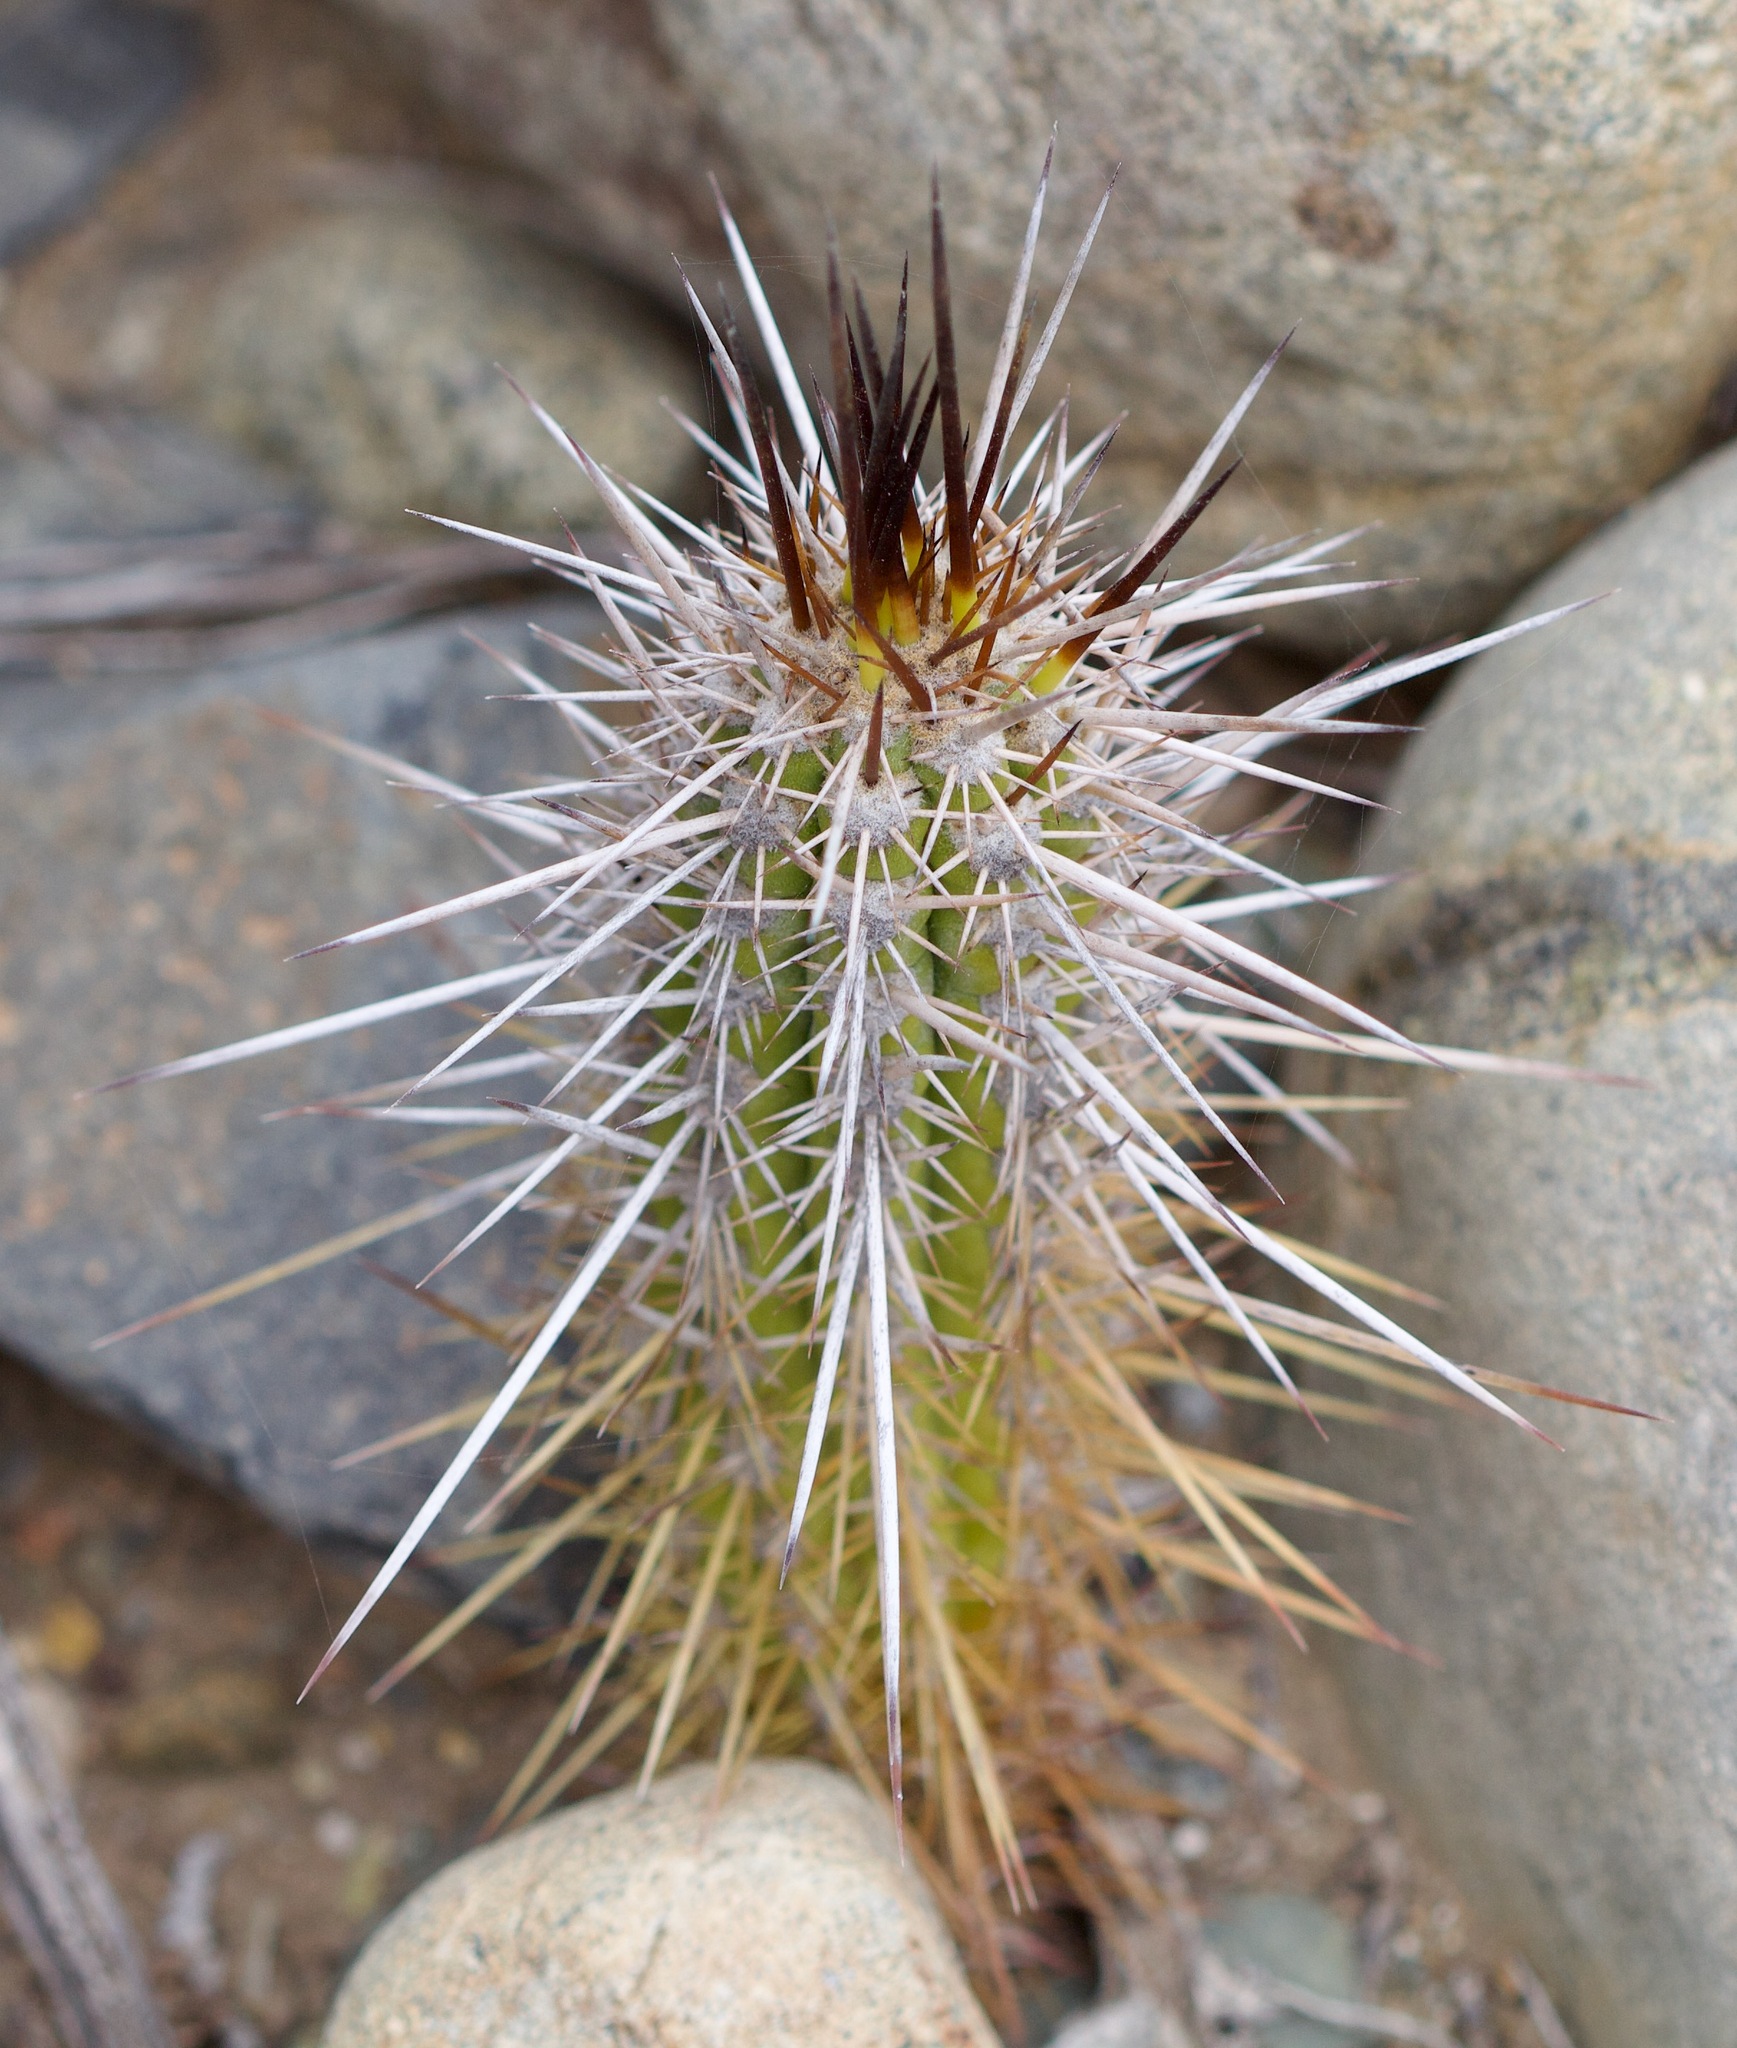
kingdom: Plantae
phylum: Tracheophyta
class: Magnoliopsida
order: Caryophyllales
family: Cactaceae
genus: Leucostele
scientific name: Leucostele deserticola
